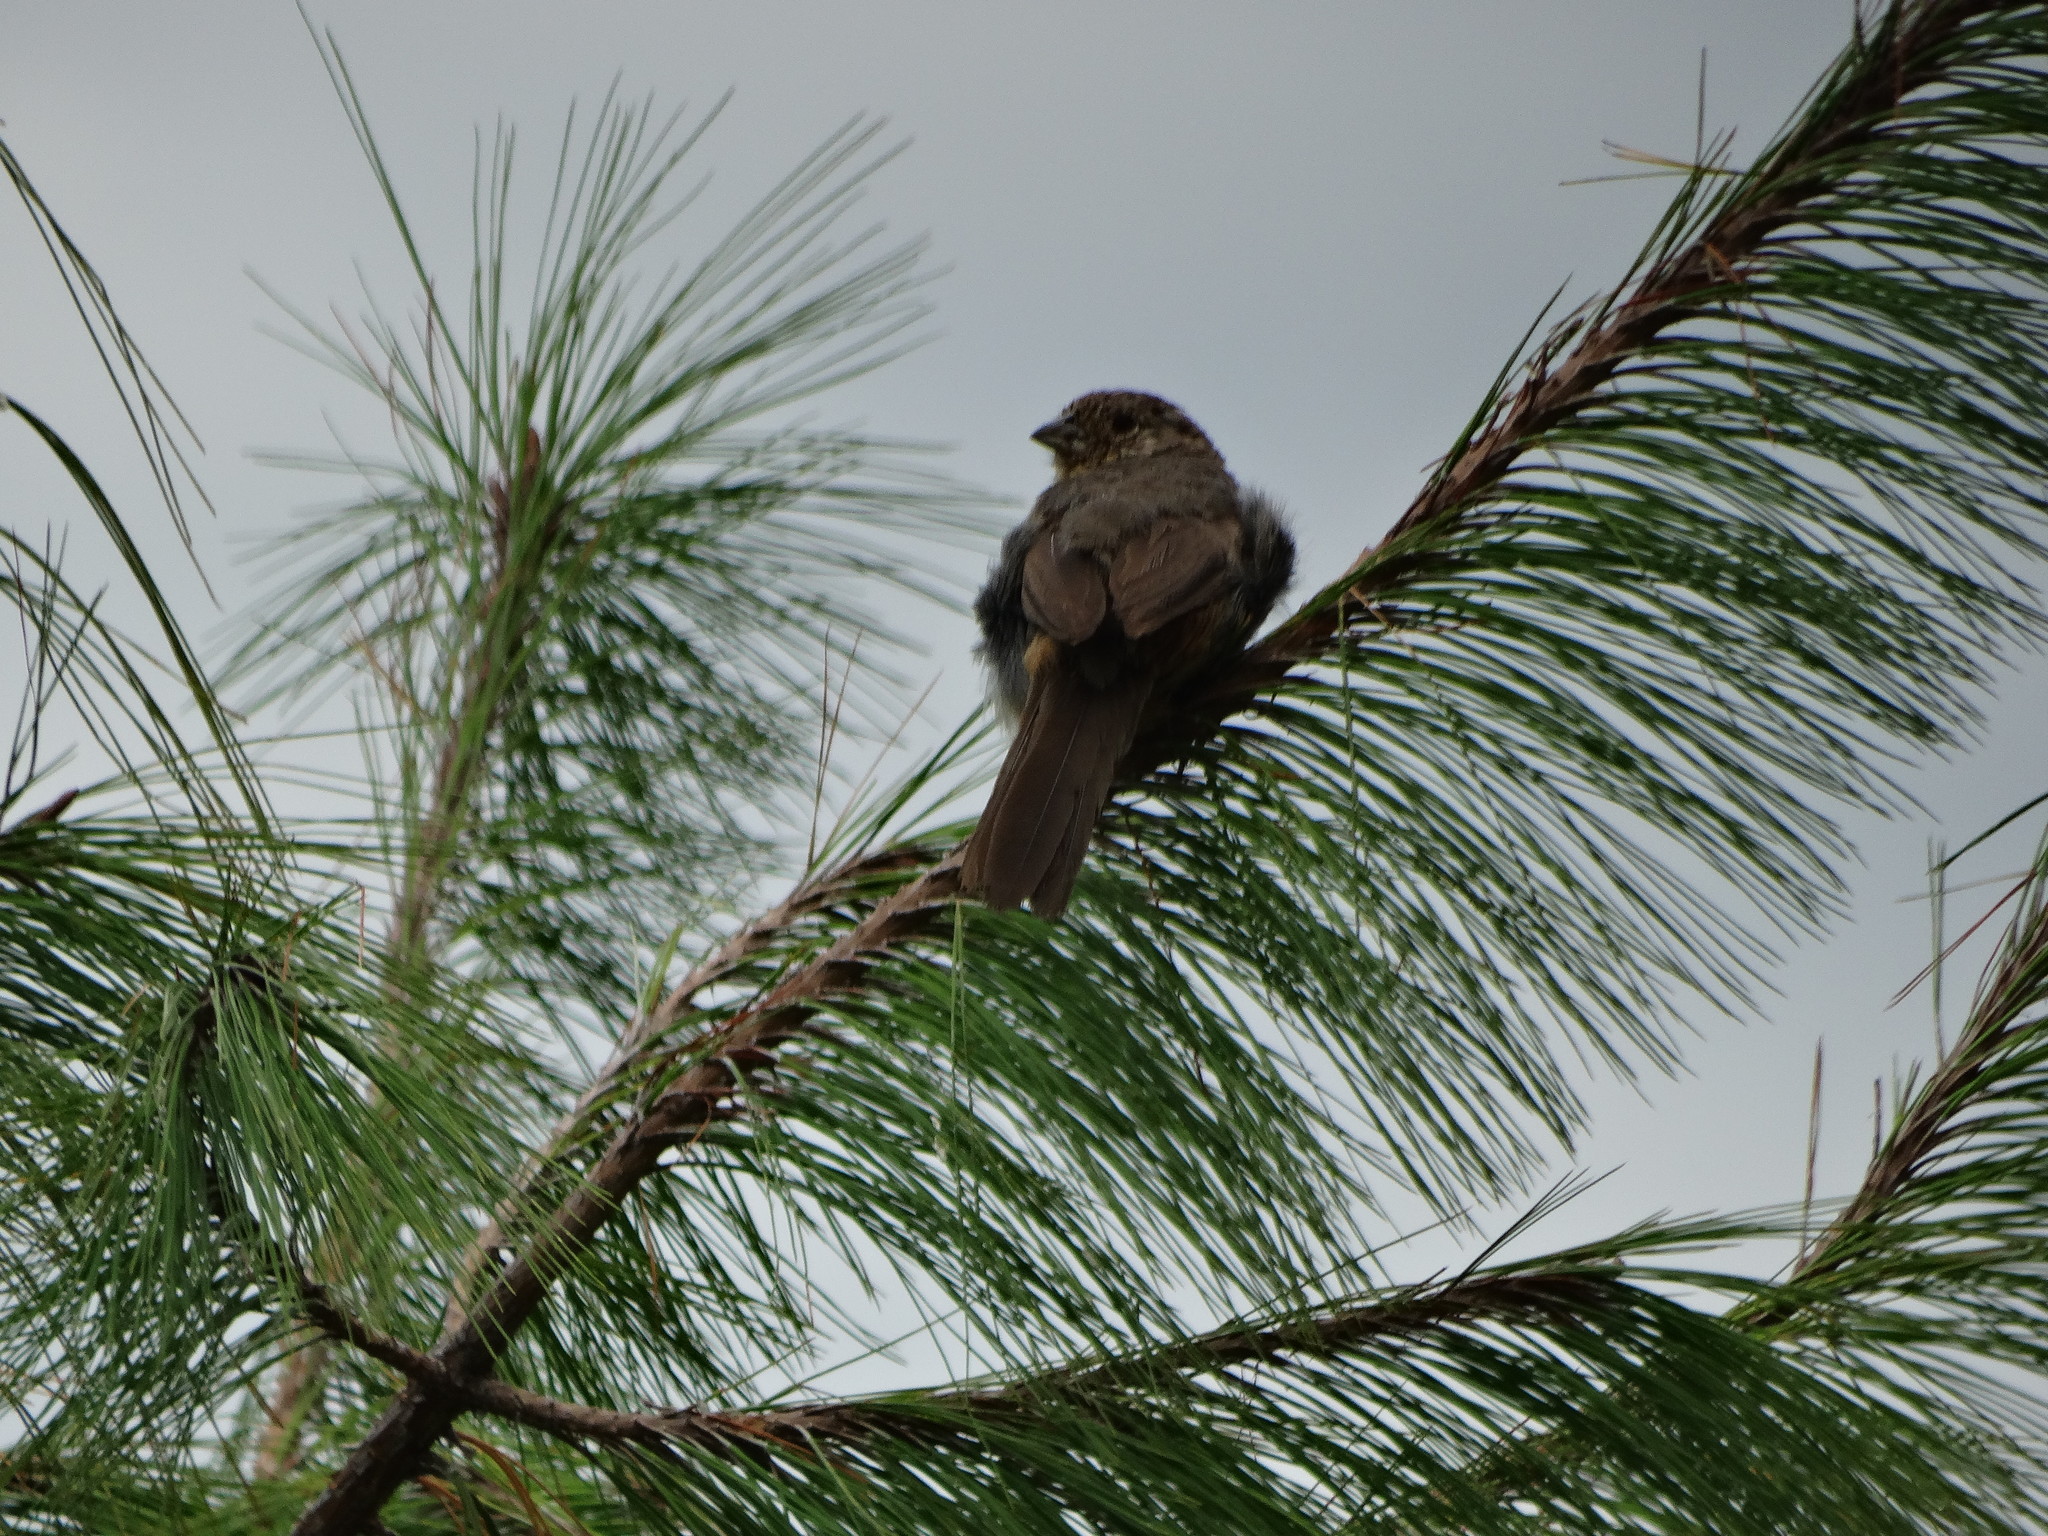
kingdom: Animalia
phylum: Chordata
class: Aves
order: Passeriformes
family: Passerellidae
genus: Melozone
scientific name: Melozone fusca
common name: Canyon towhee
